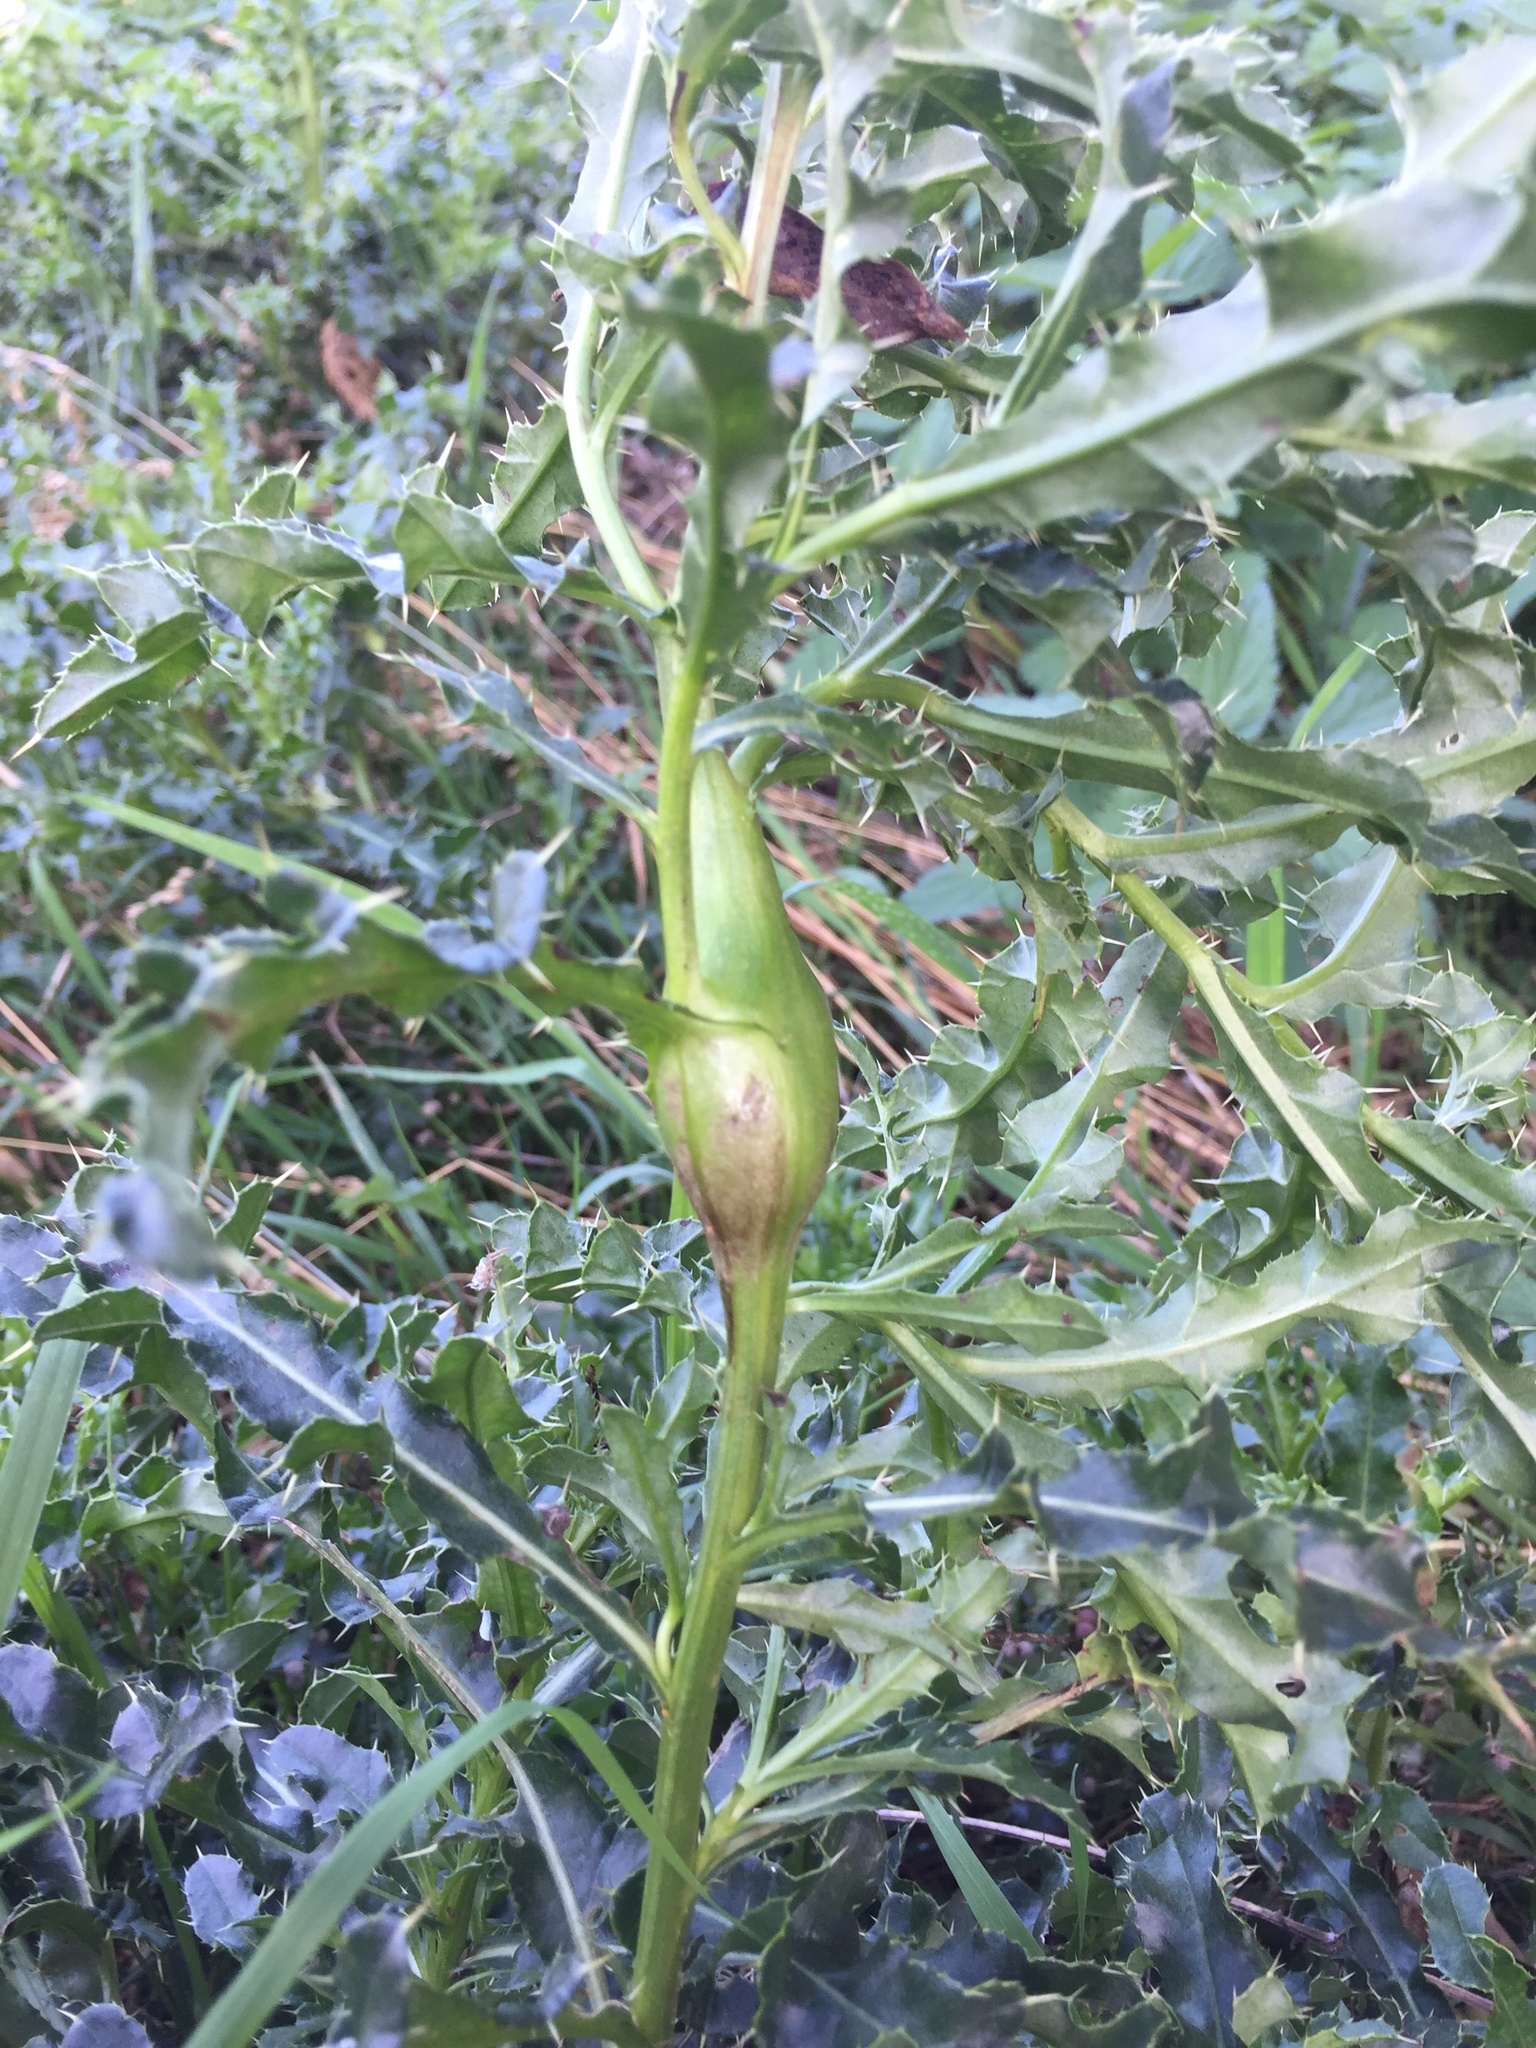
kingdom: Animalia
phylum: Arthropoda
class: Insecta
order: Diptera
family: Tephritidae
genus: Urophora
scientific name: Urophora cardui
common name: Fruit fly
